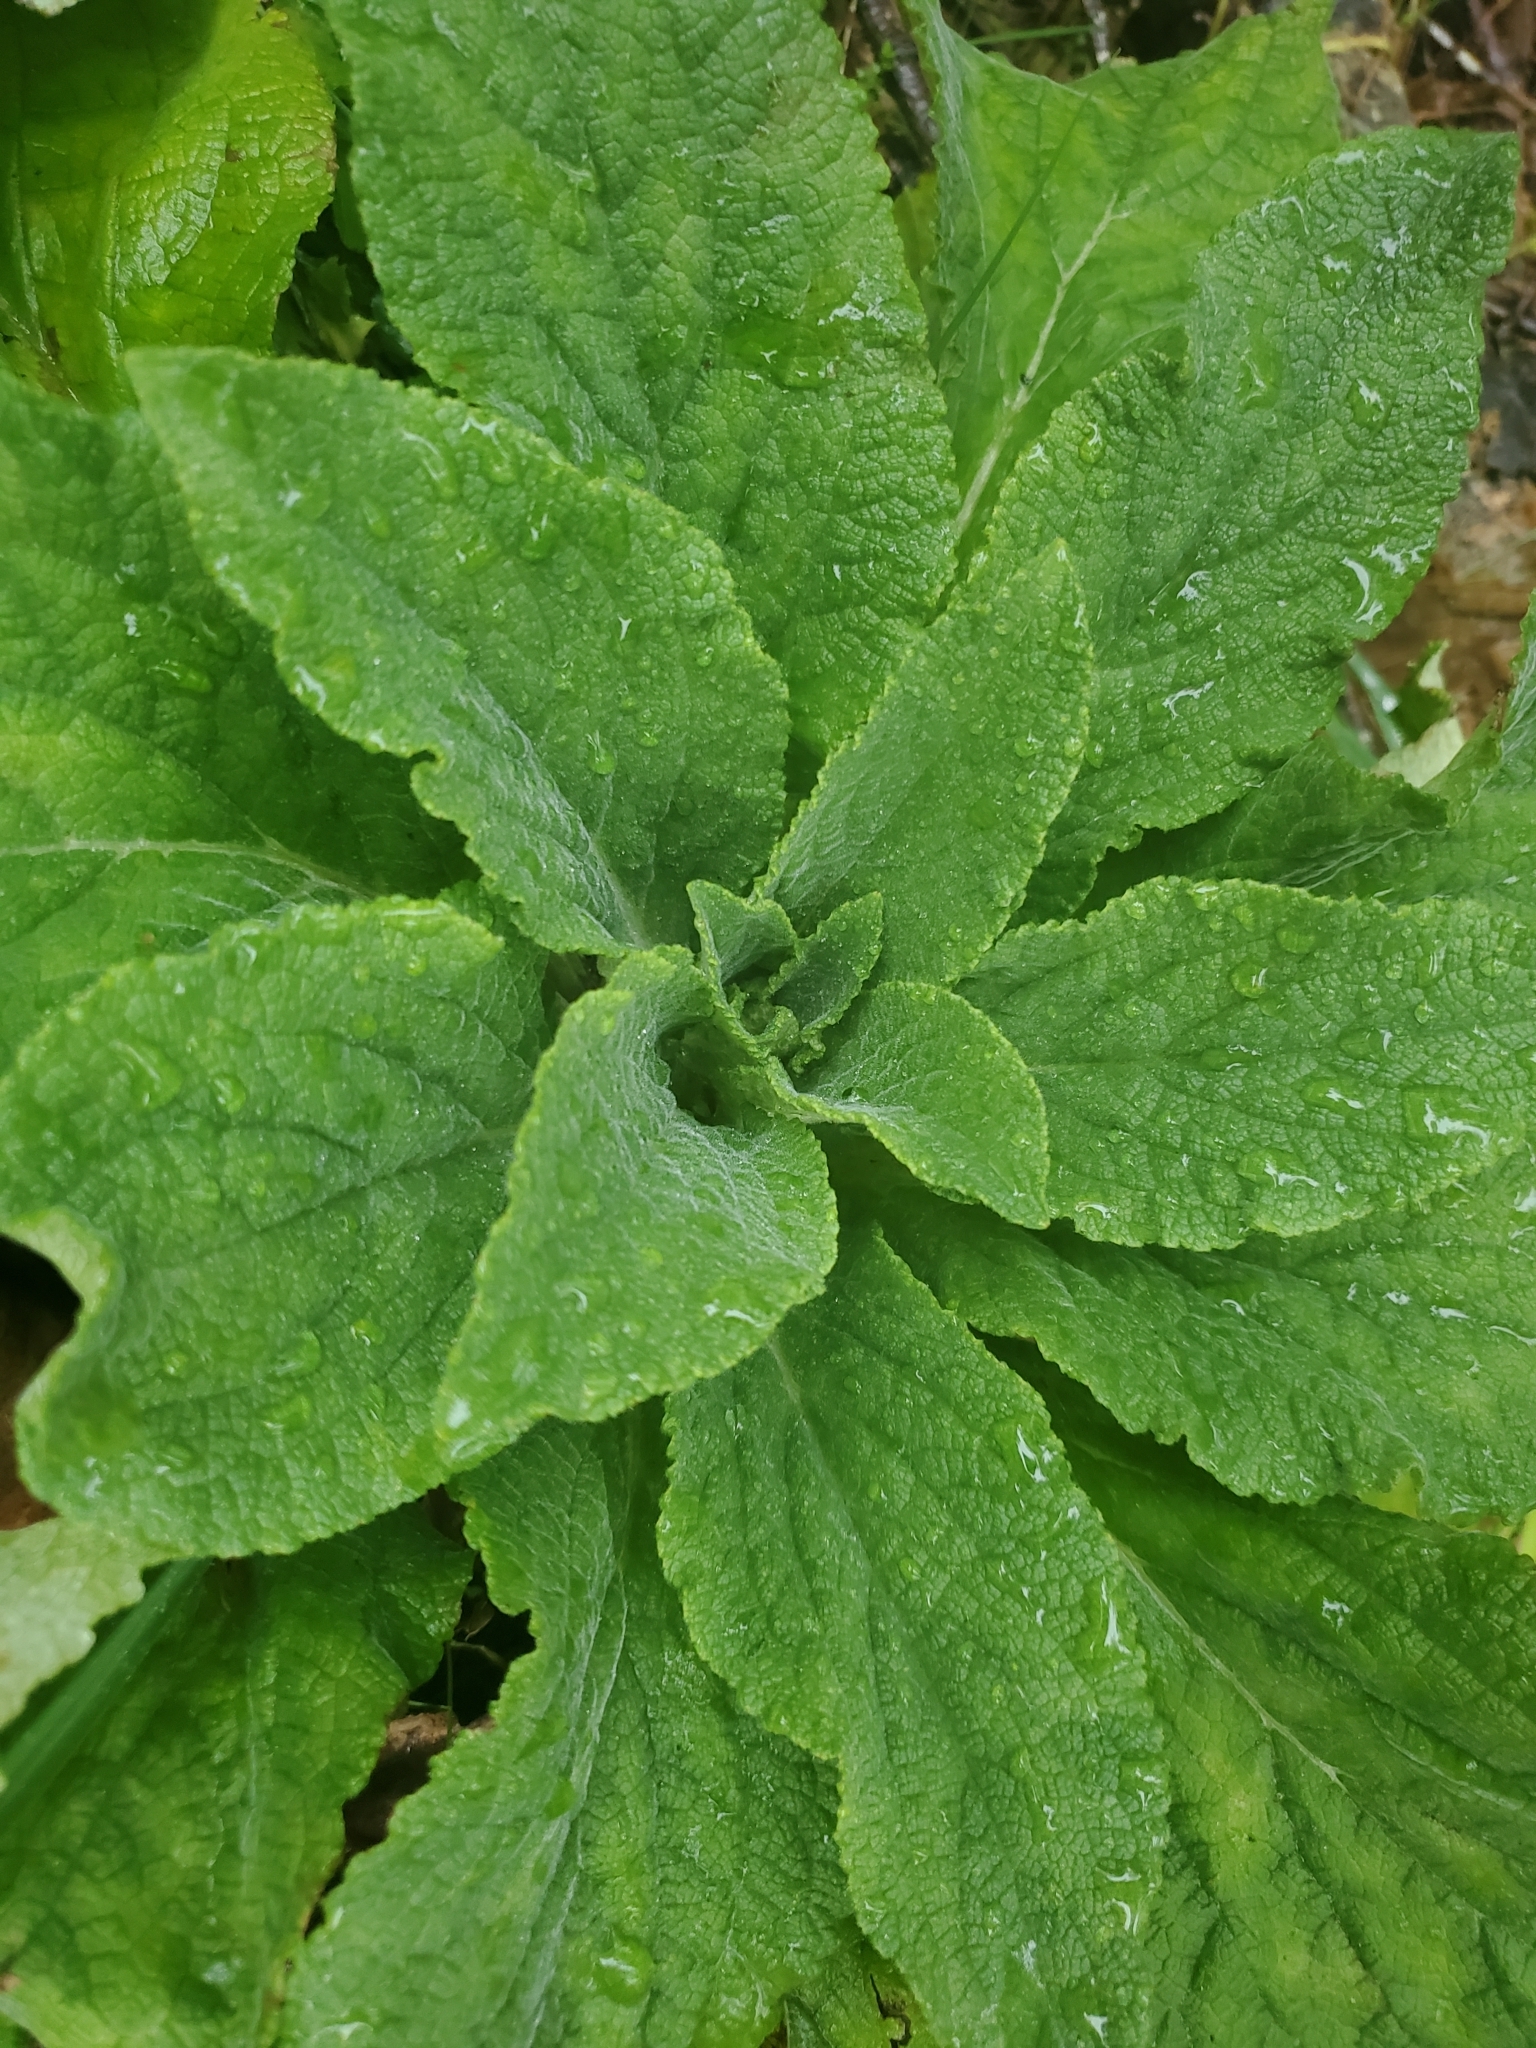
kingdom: Plantae
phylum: Tracheophyta
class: Magnoliopsida
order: Lamiales
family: Plantaginaceae
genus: Digitalis
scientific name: Digitalis purpurea
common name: Foxglove
